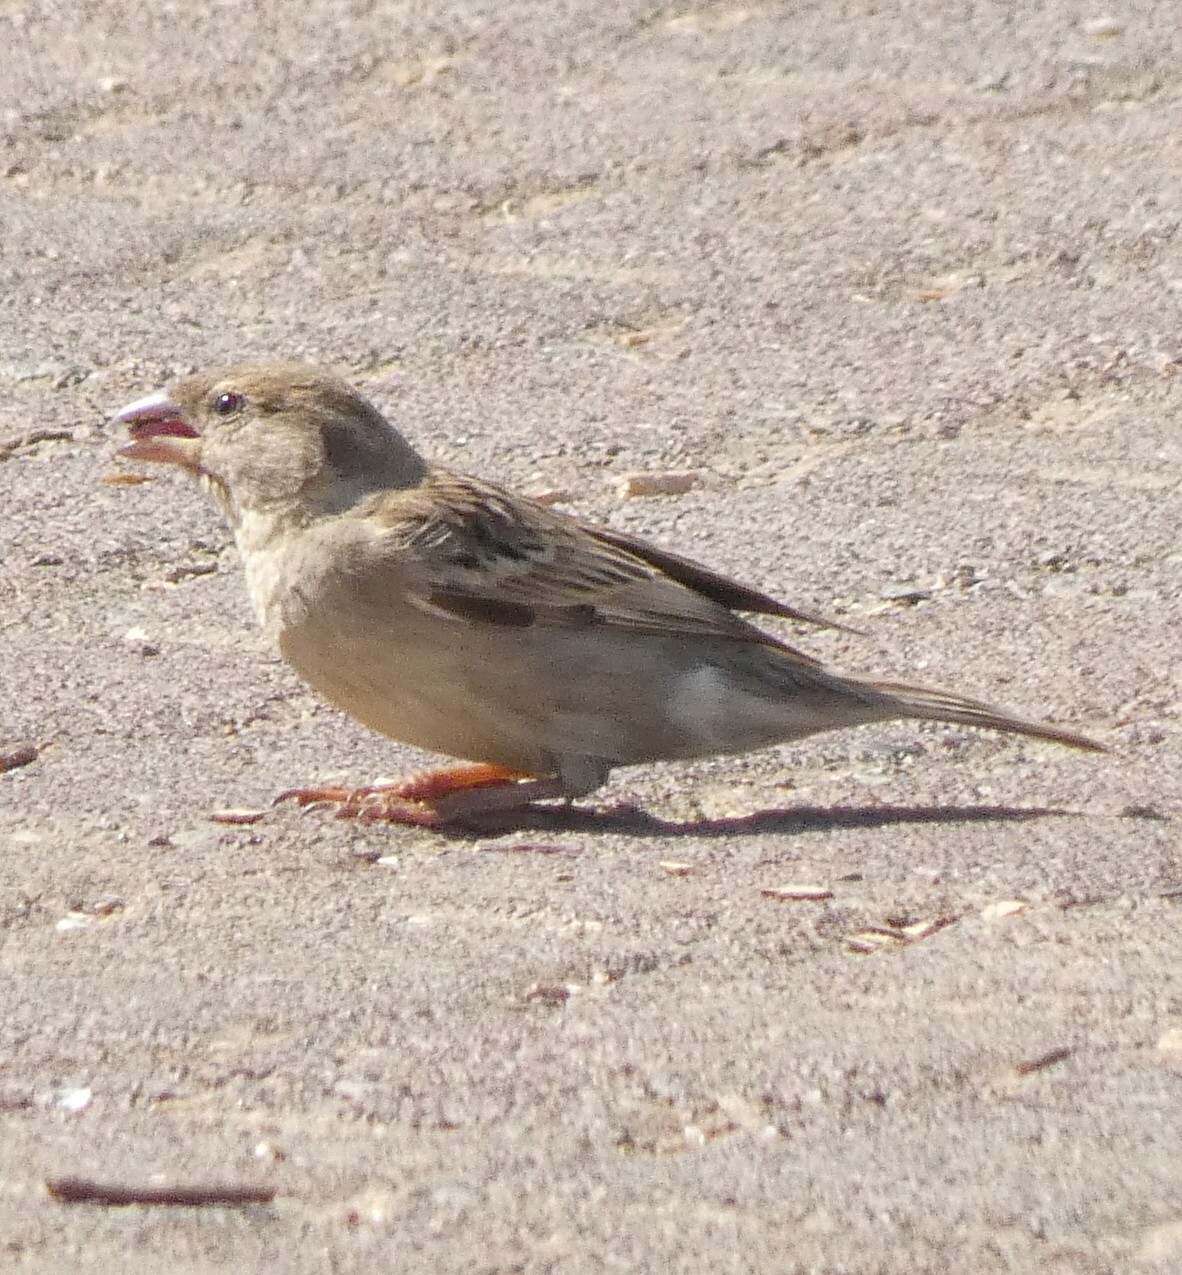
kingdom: Animalia
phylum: Chordata
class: Aves
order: Passeriformes
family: Passeridae
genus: Passer
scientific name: Passer domesticus
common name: House sparrow
